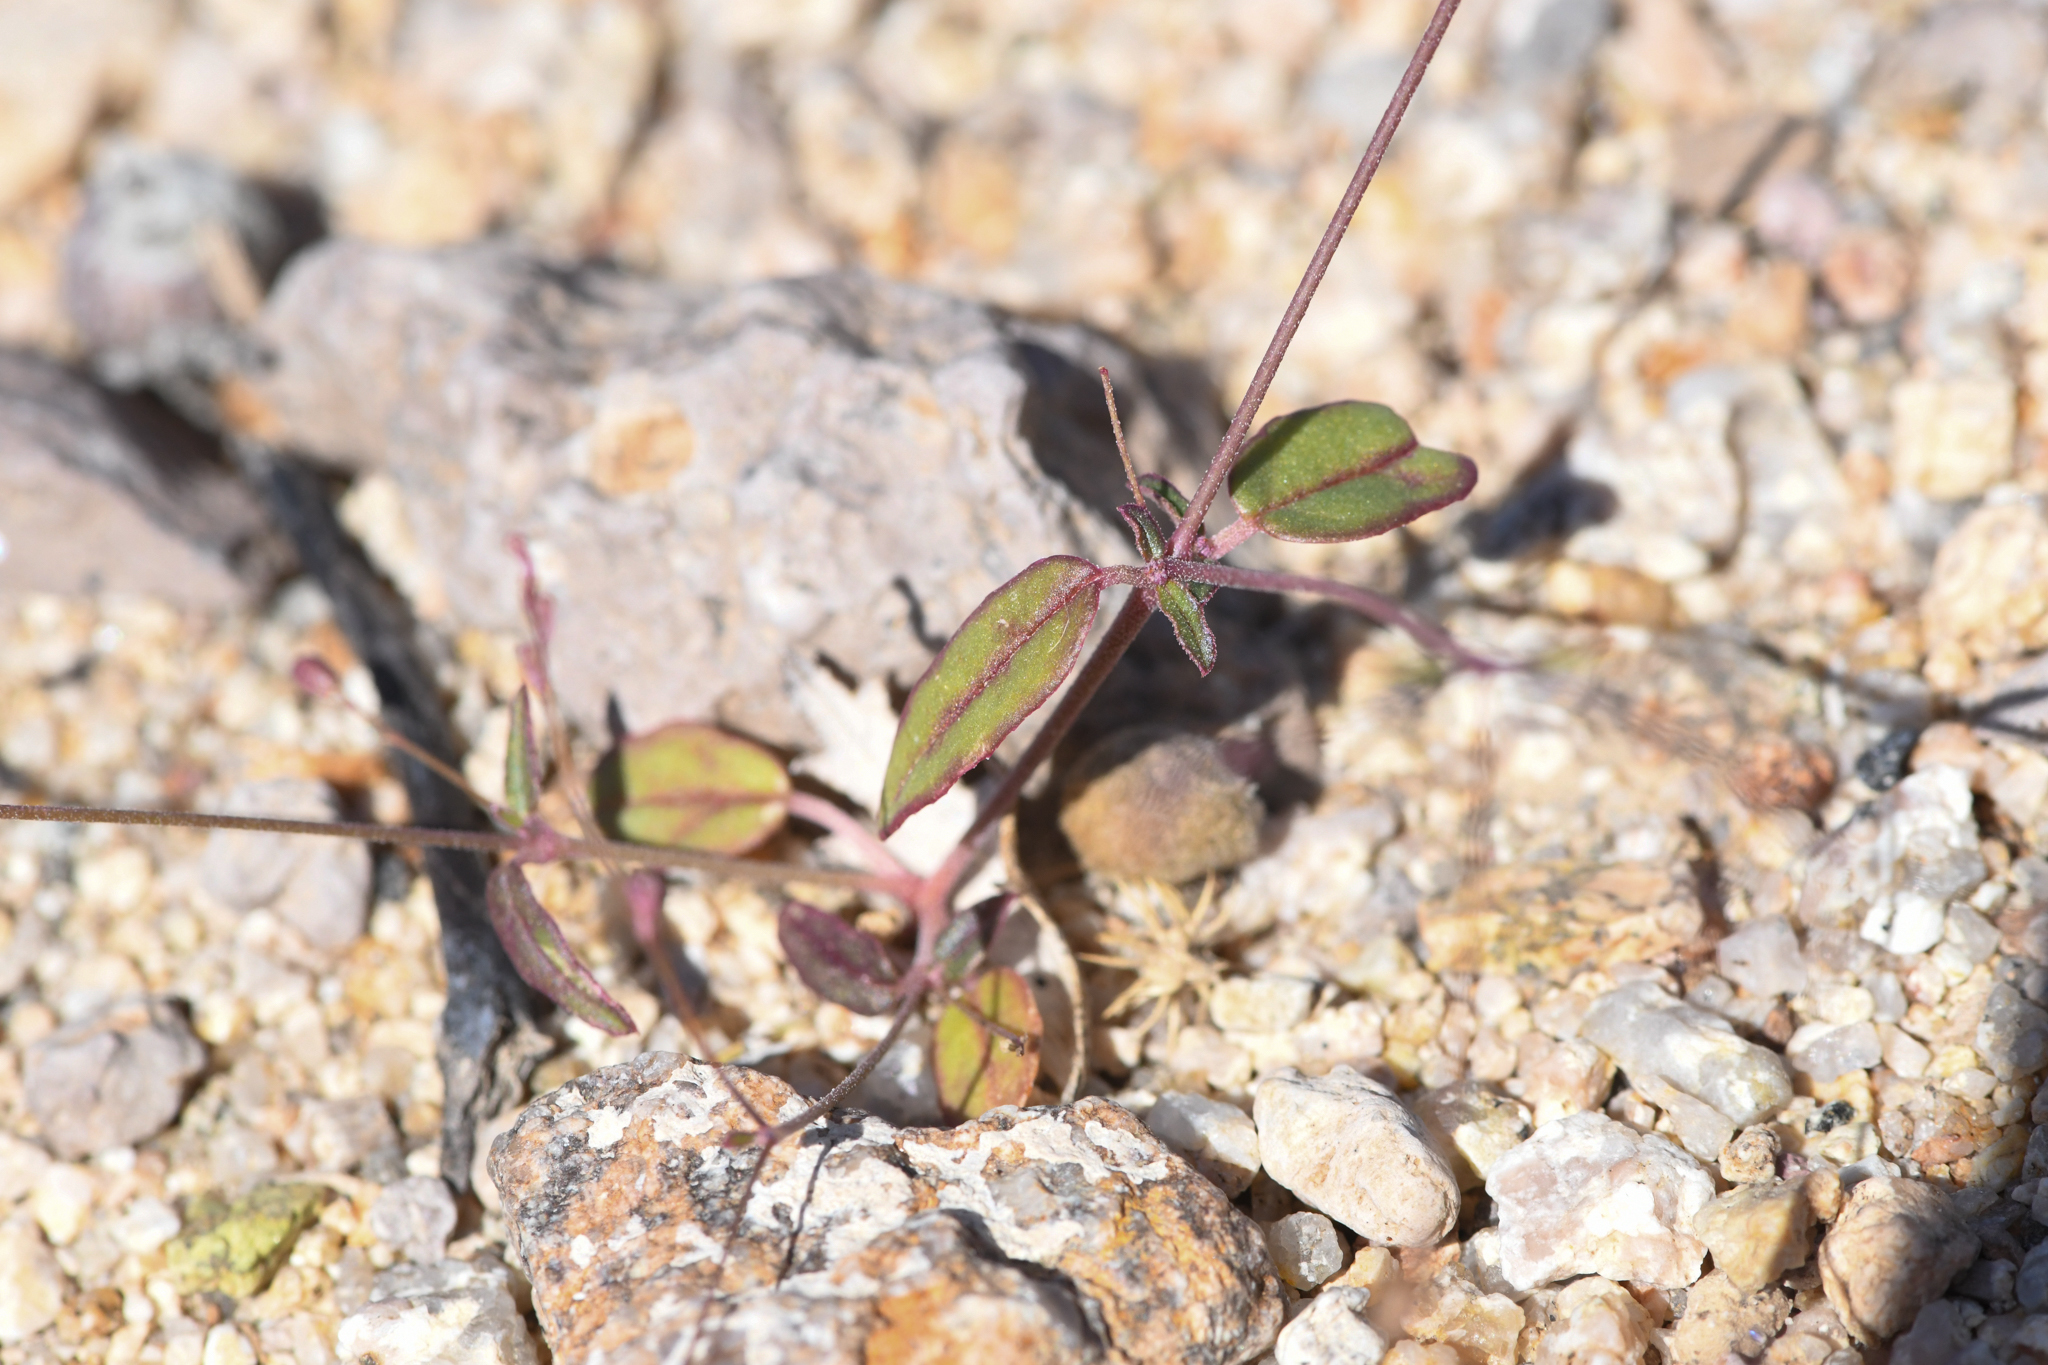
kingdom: Plantae
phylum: Tracheophyta
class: Magnoliopsida
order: Caryophyllales
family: Nyctaginaceae
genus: Boerhavia
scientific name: Boerhavia coulteri
